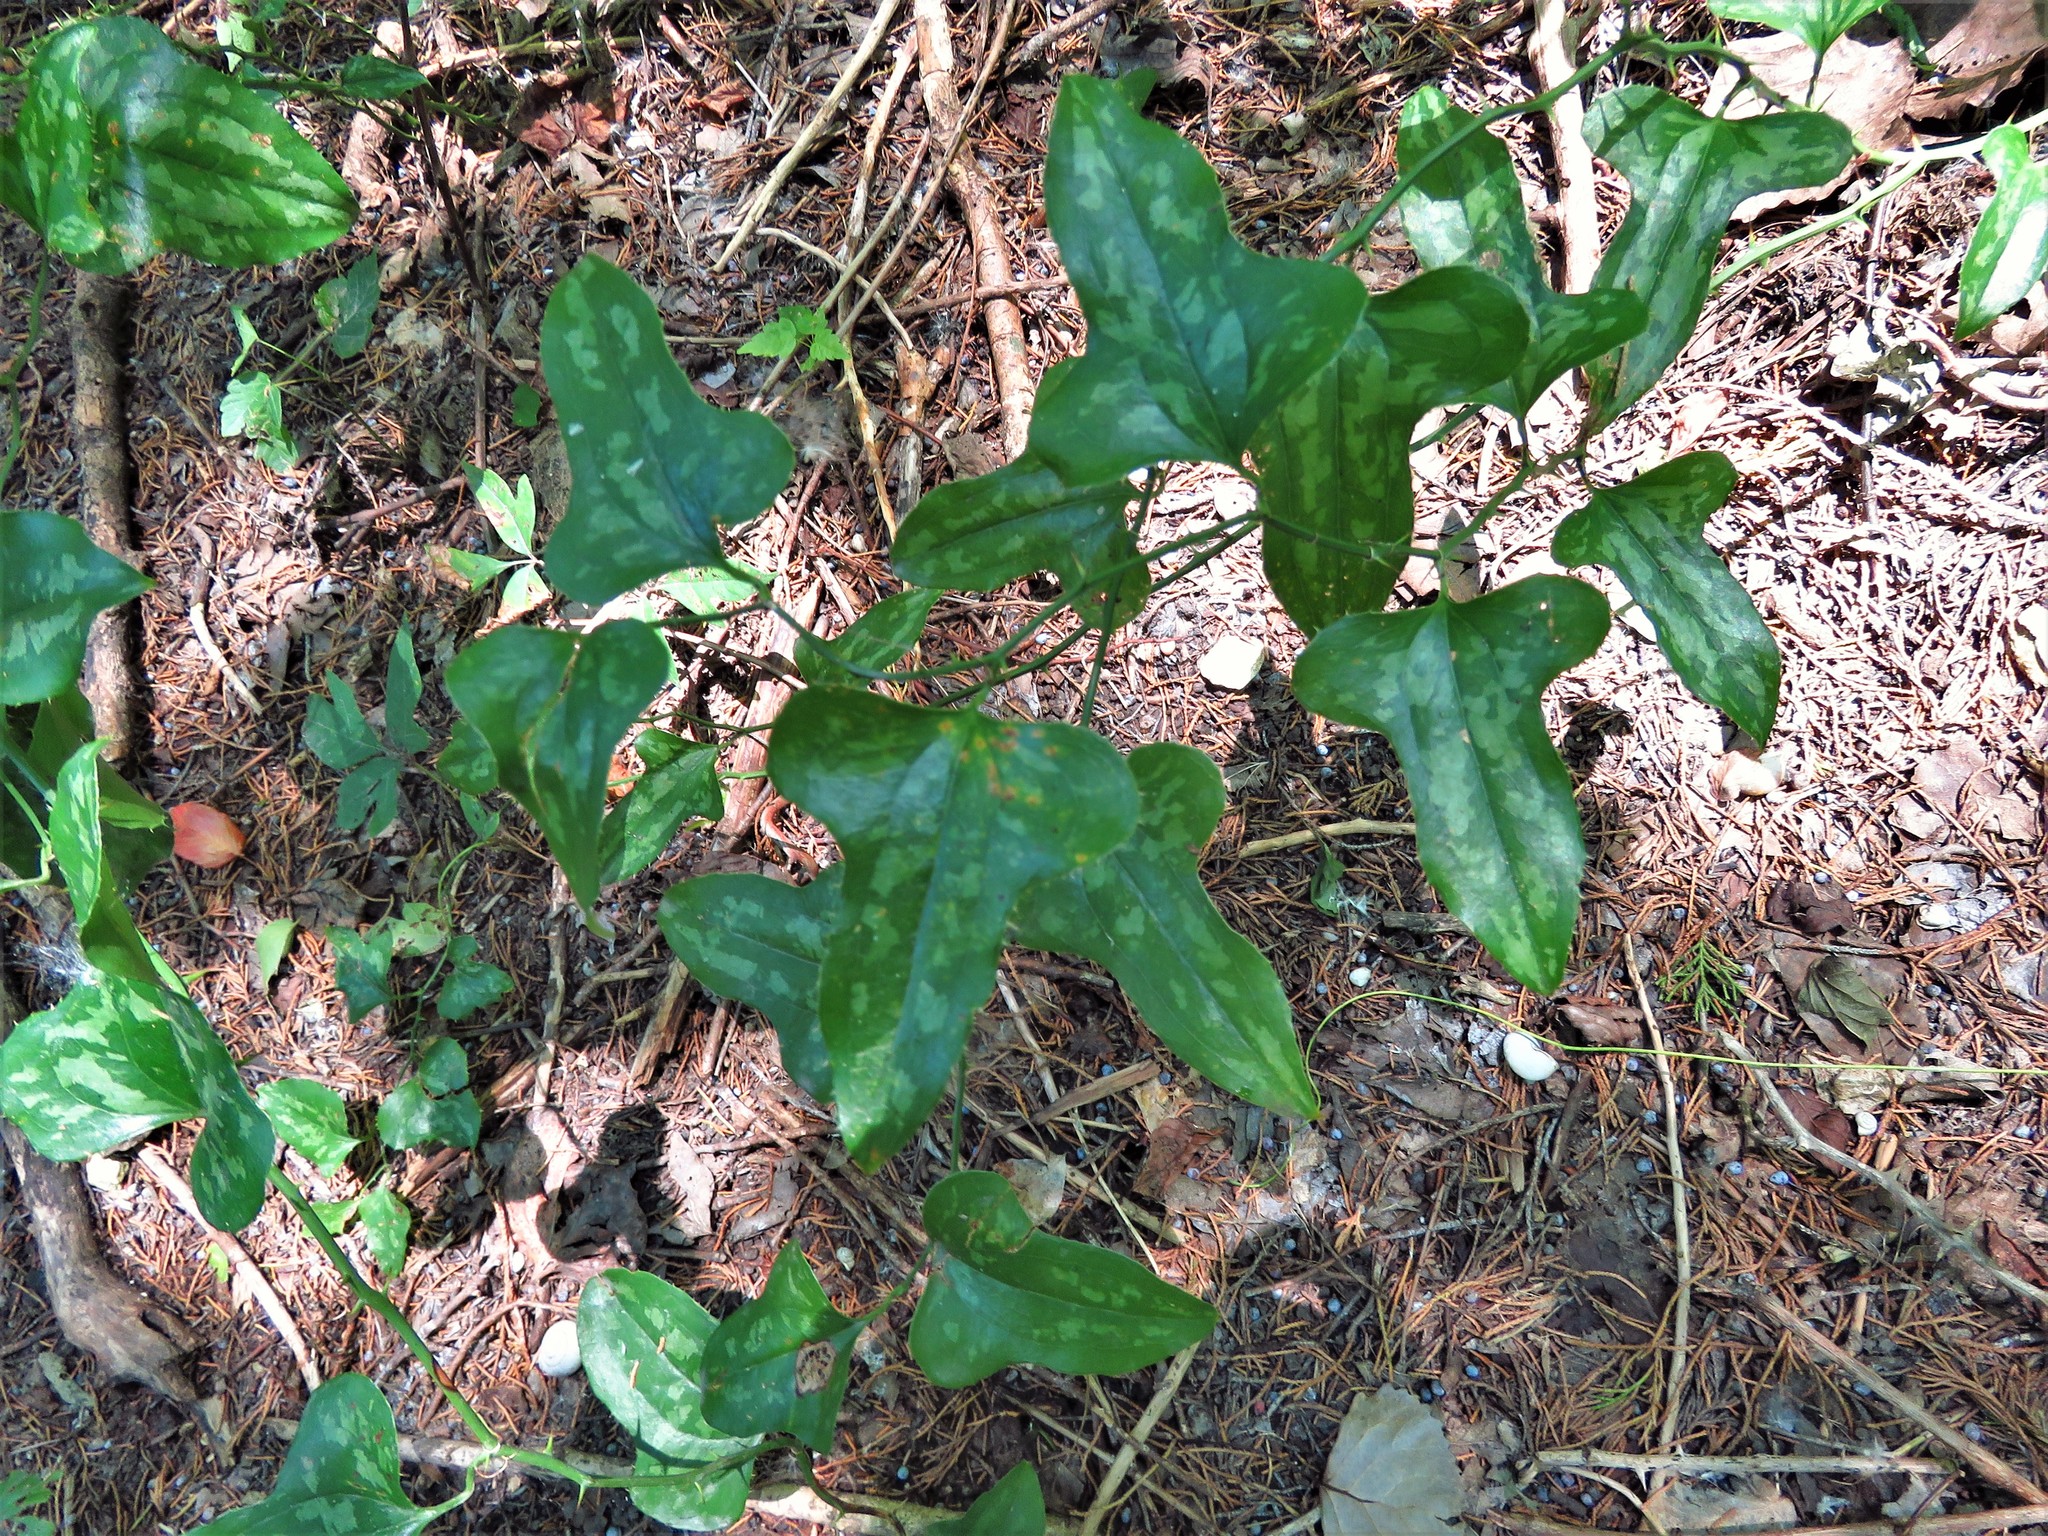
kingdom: Plantae
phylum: Tracheophyta
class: Liliopsida
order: Liliales
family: Smilacaceae
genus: Smilax
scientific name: Smilax bona-nox
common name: Catbrier
